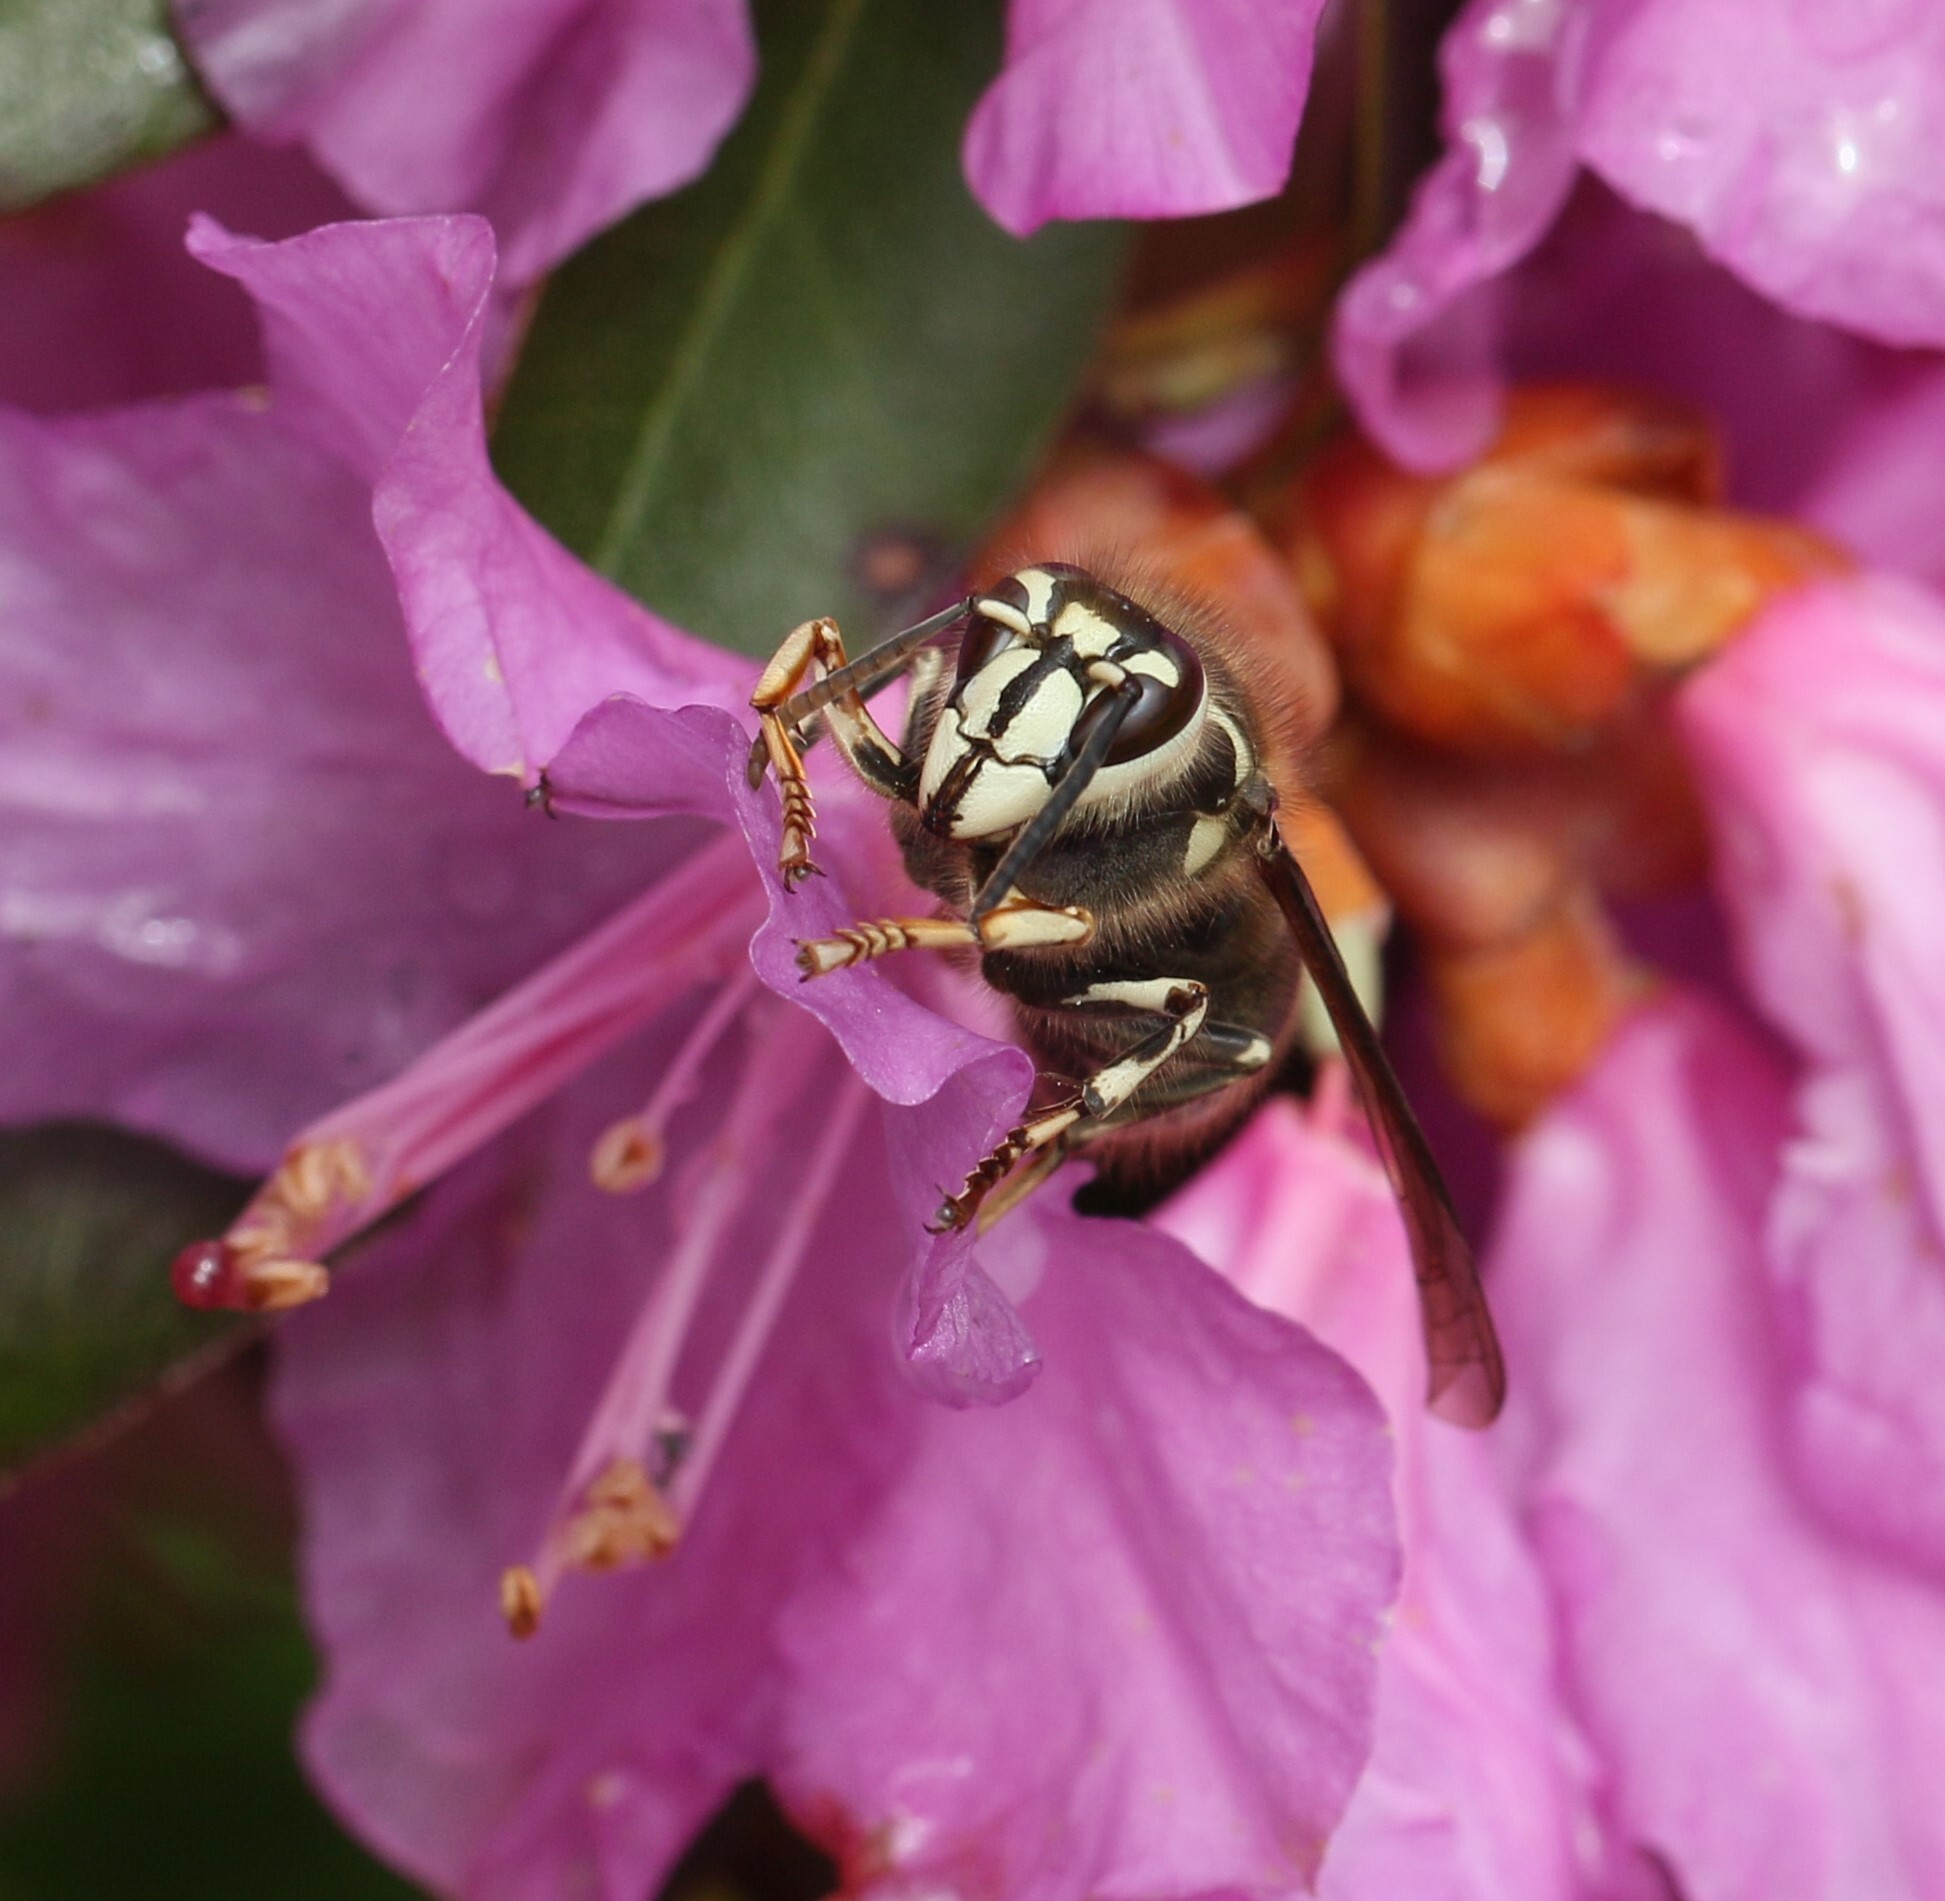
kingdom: Animalia
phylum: Arthropoda
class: Insecta
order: Hymenoptera
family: Vespidae
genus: Dolichovespula
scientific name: Dolichovespula maculata
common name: Bald-faced hornet
